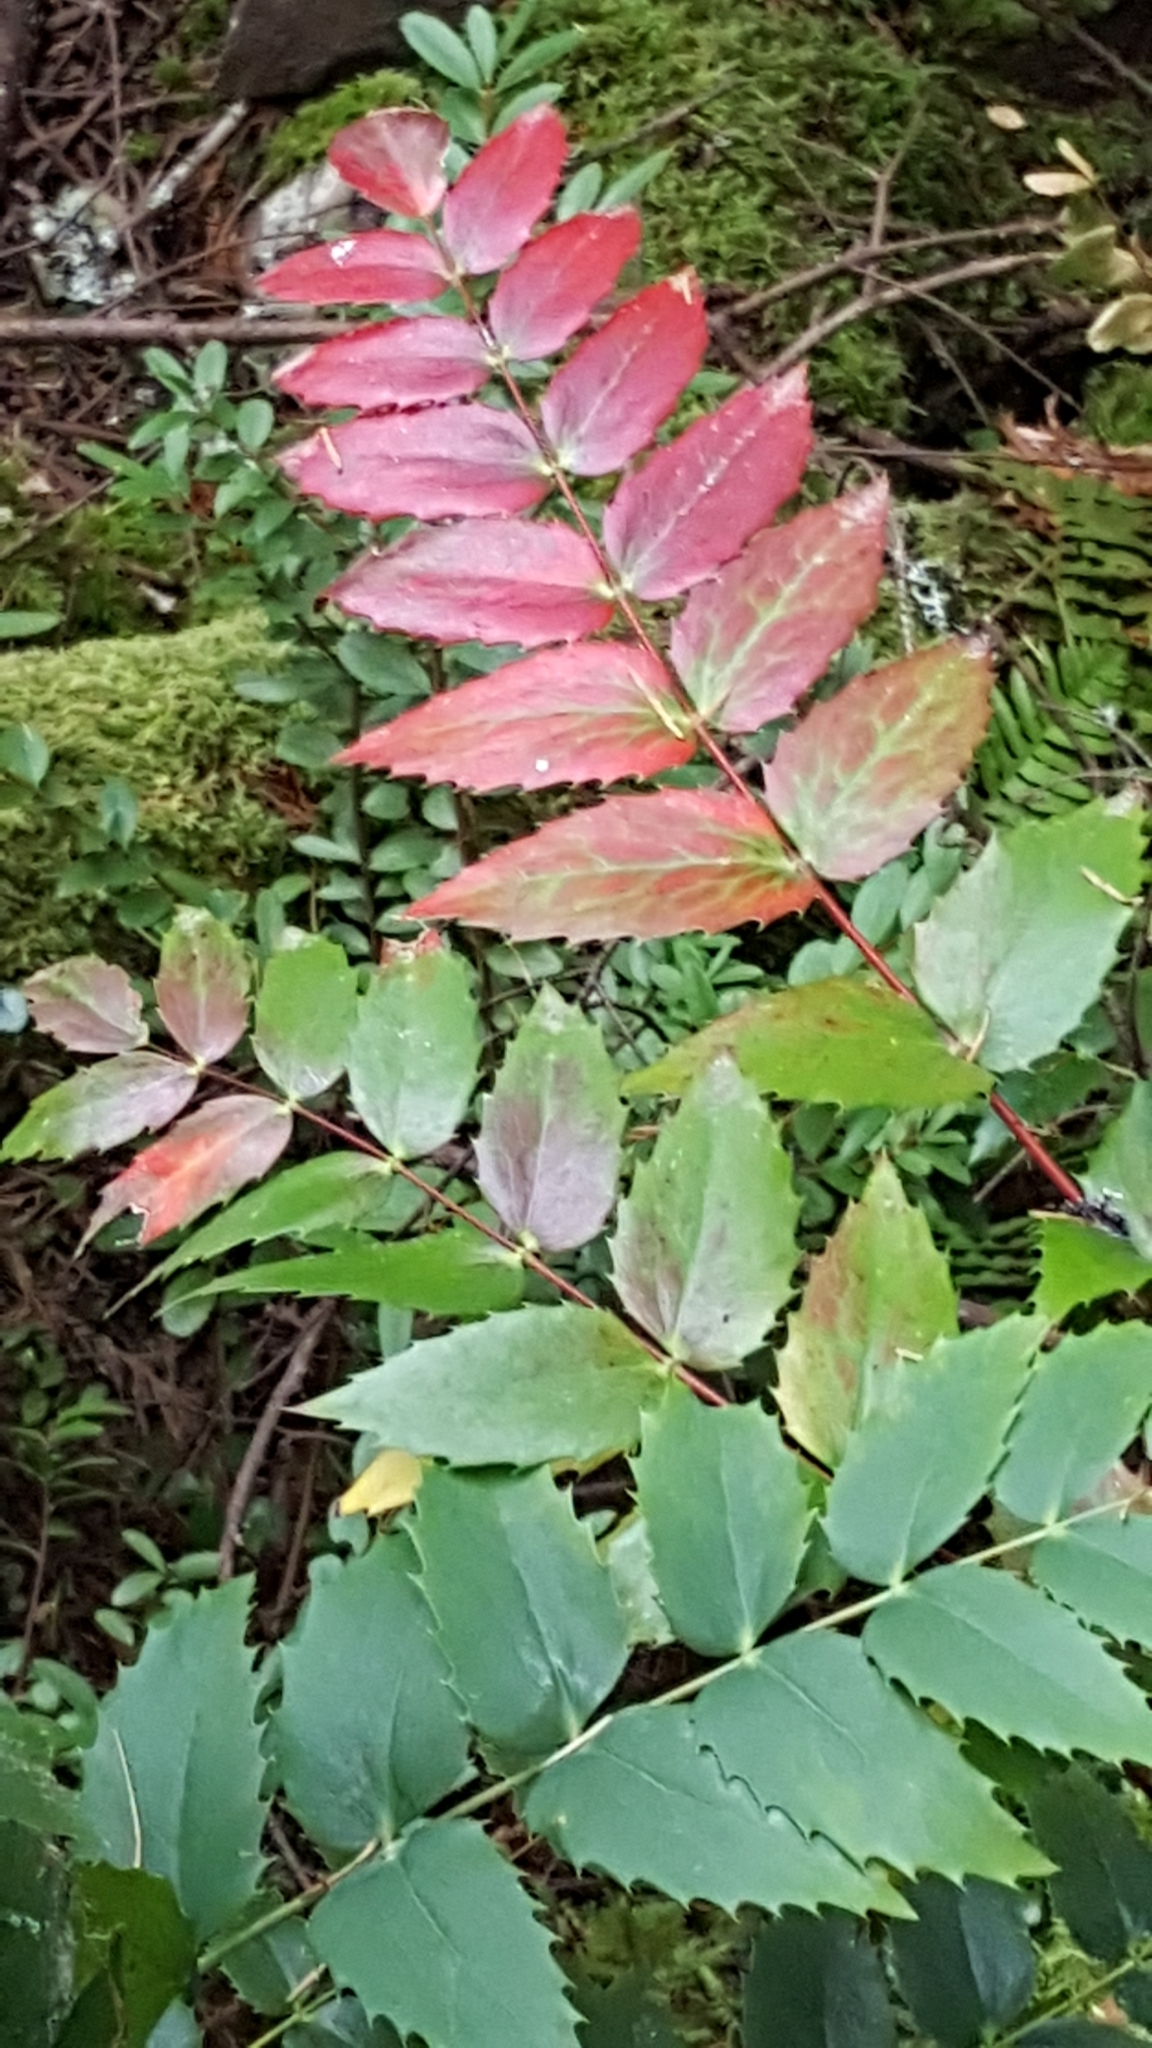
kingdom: Plantae
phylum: Tracheophyta
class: Magnoliopsida
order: Ranunculales
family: Berberidaceae
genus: Mahonia
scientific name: Mahonia nervosa
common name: Cascade oregon-grape
